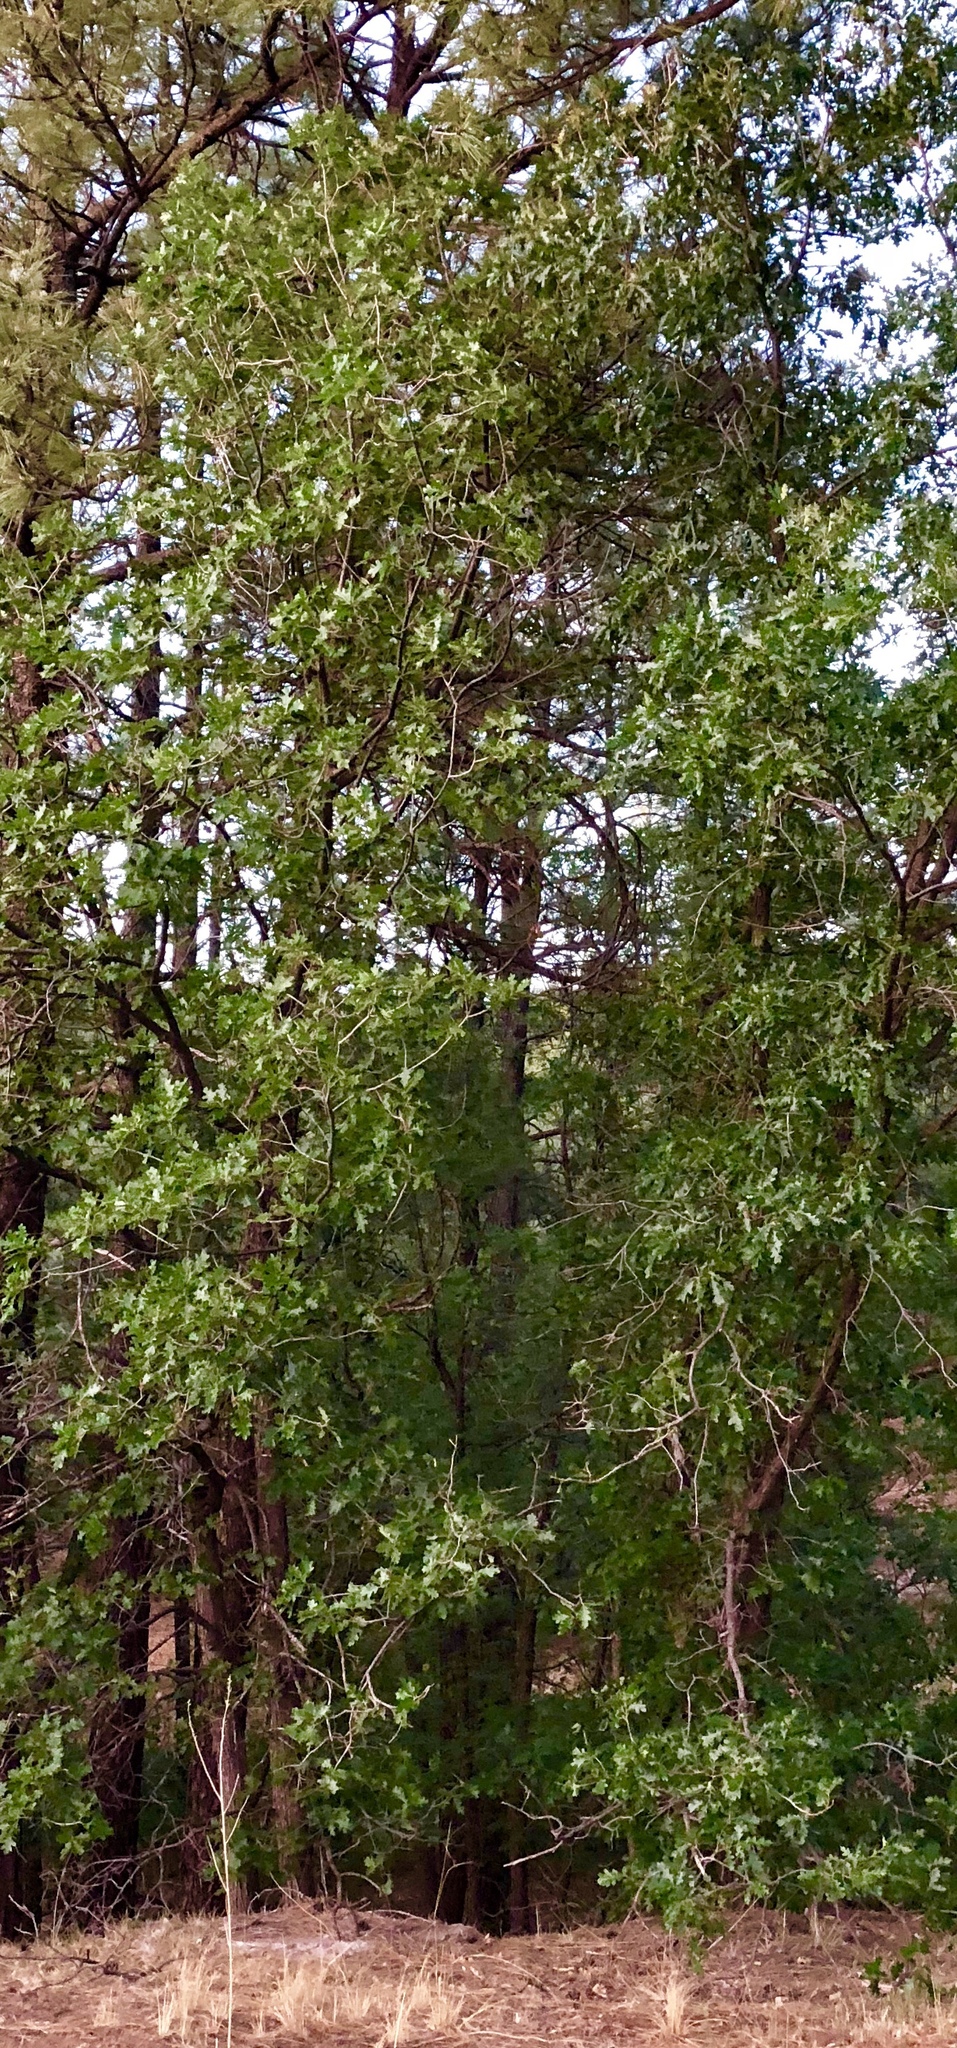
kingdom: Plantae
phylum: Tracheophyta
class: Magnoliopsida
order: Fagales
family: Fagaceae
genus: Quercus
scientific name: Quercus gambelii
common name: Gambel oak
